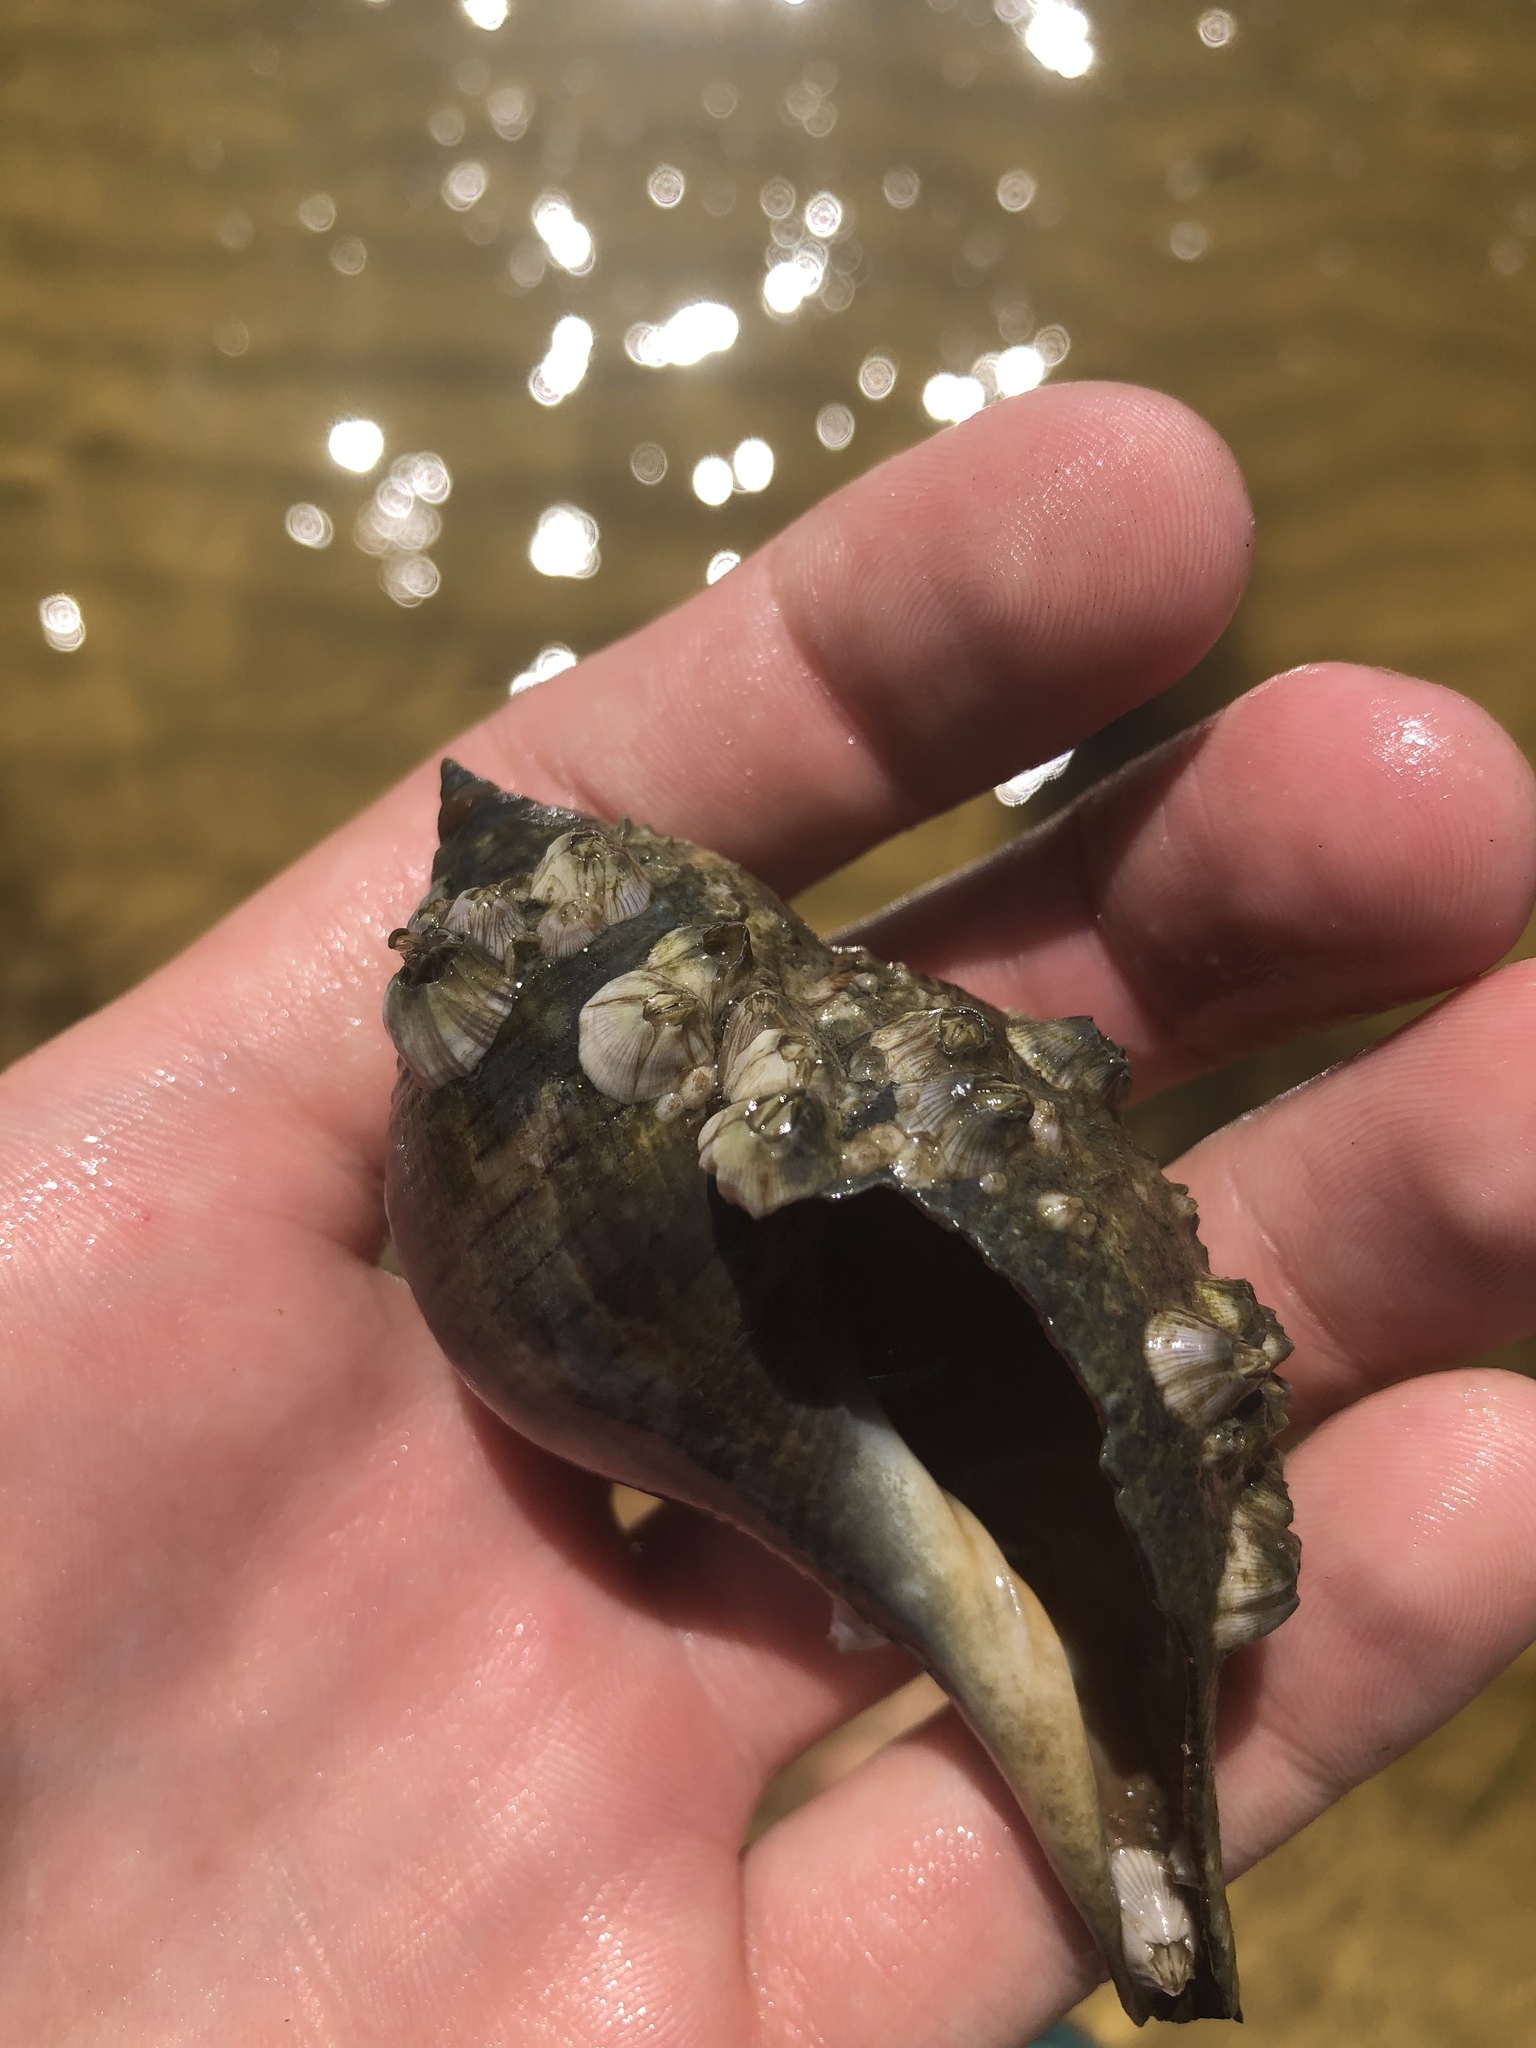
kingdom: Animalia
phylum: Mollusca
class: Gastropoda
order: Neogastropoda
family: Fasciolariidae
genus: Fasciolaria
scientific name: Fasciolaria tulipa
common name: True tulip
